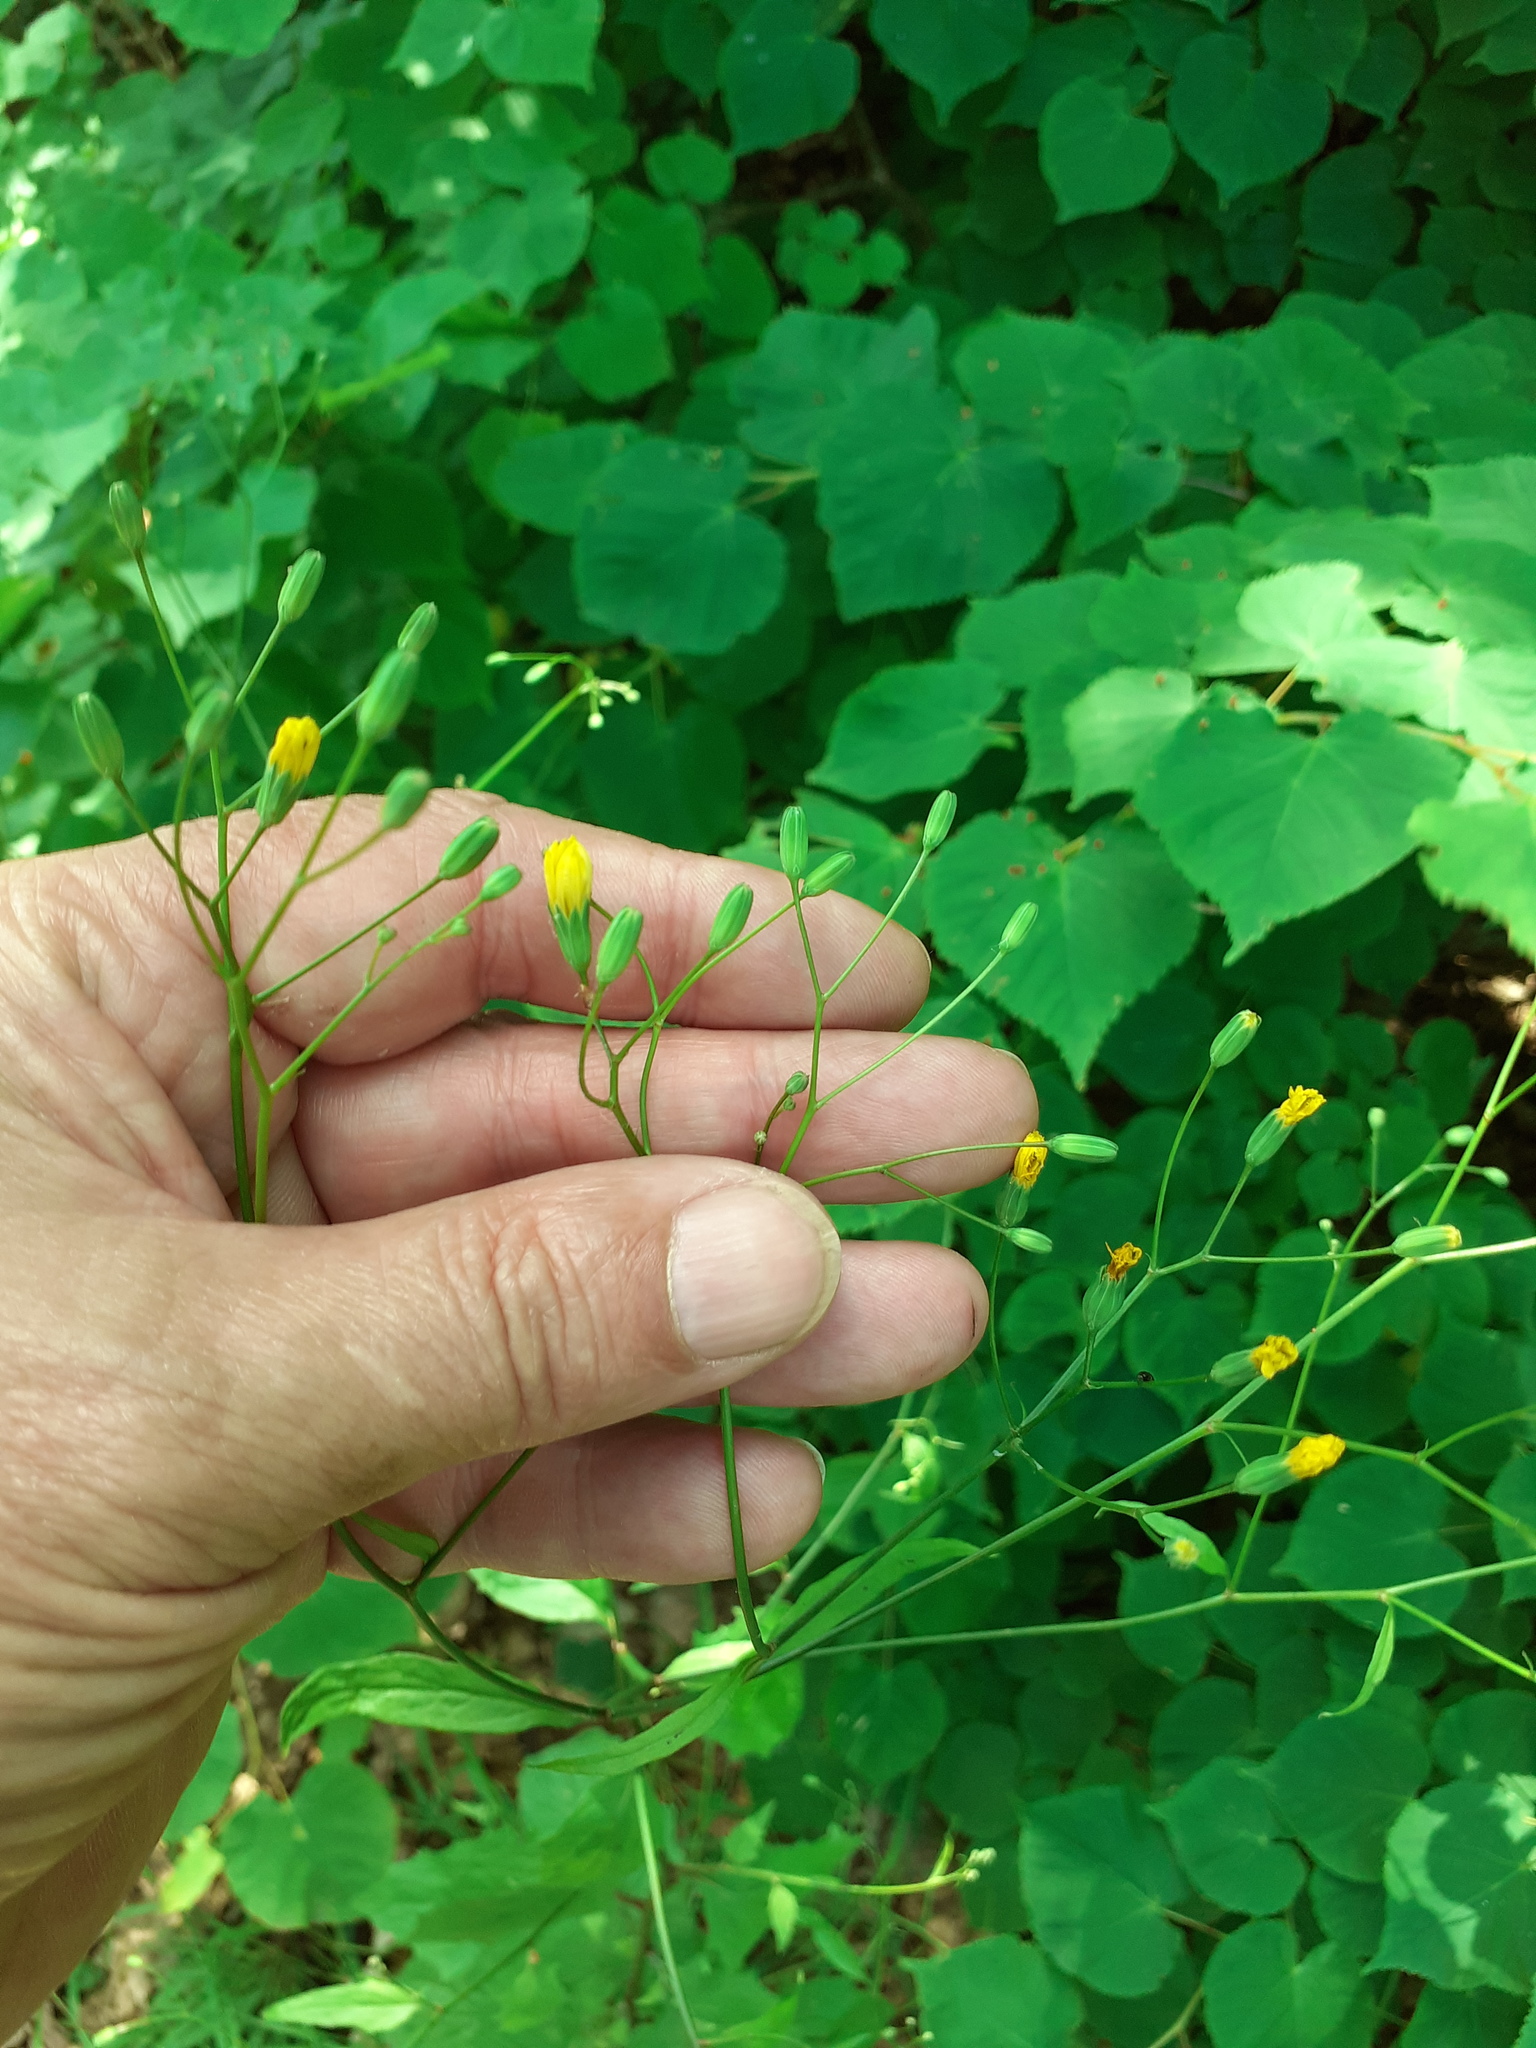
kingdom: Plantae
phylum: Tracheophyta
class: Magnoliopsida
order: Asterales
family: Asteraceae
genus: Lapsana
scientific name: Lapsana communis
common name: Nipplewort
